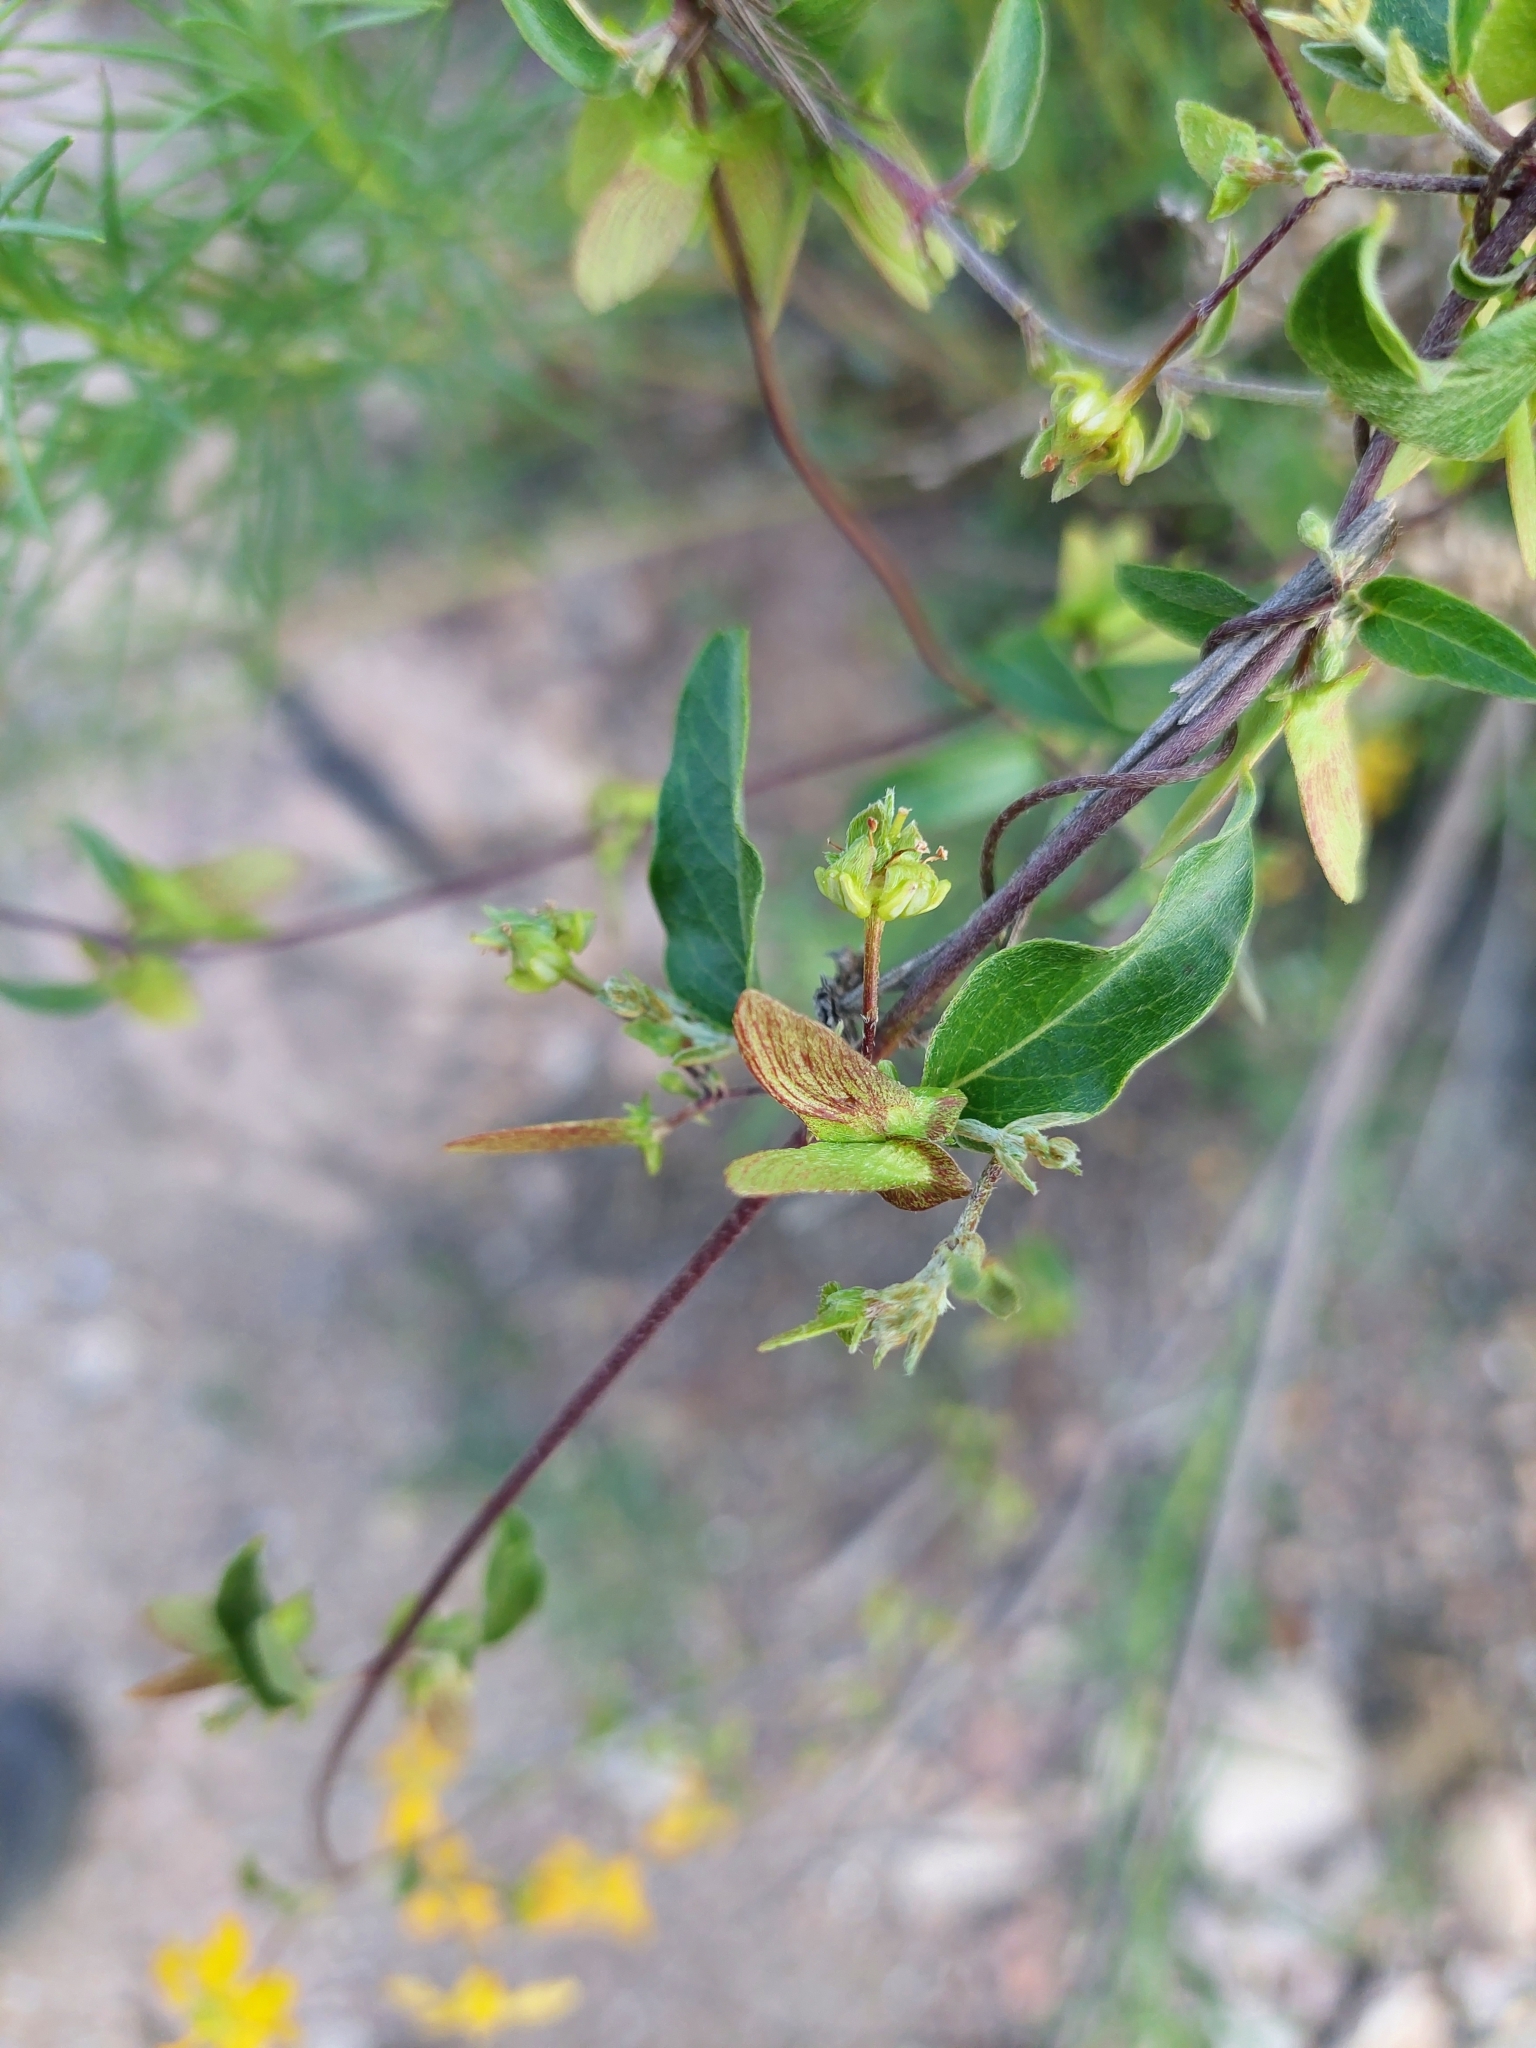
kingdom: Plantae
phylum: Tracheophyta
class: Magnoliopsida
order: Malpighiales
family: Malpighiaceae
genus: Janusia
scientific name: Janusia guaranitica
